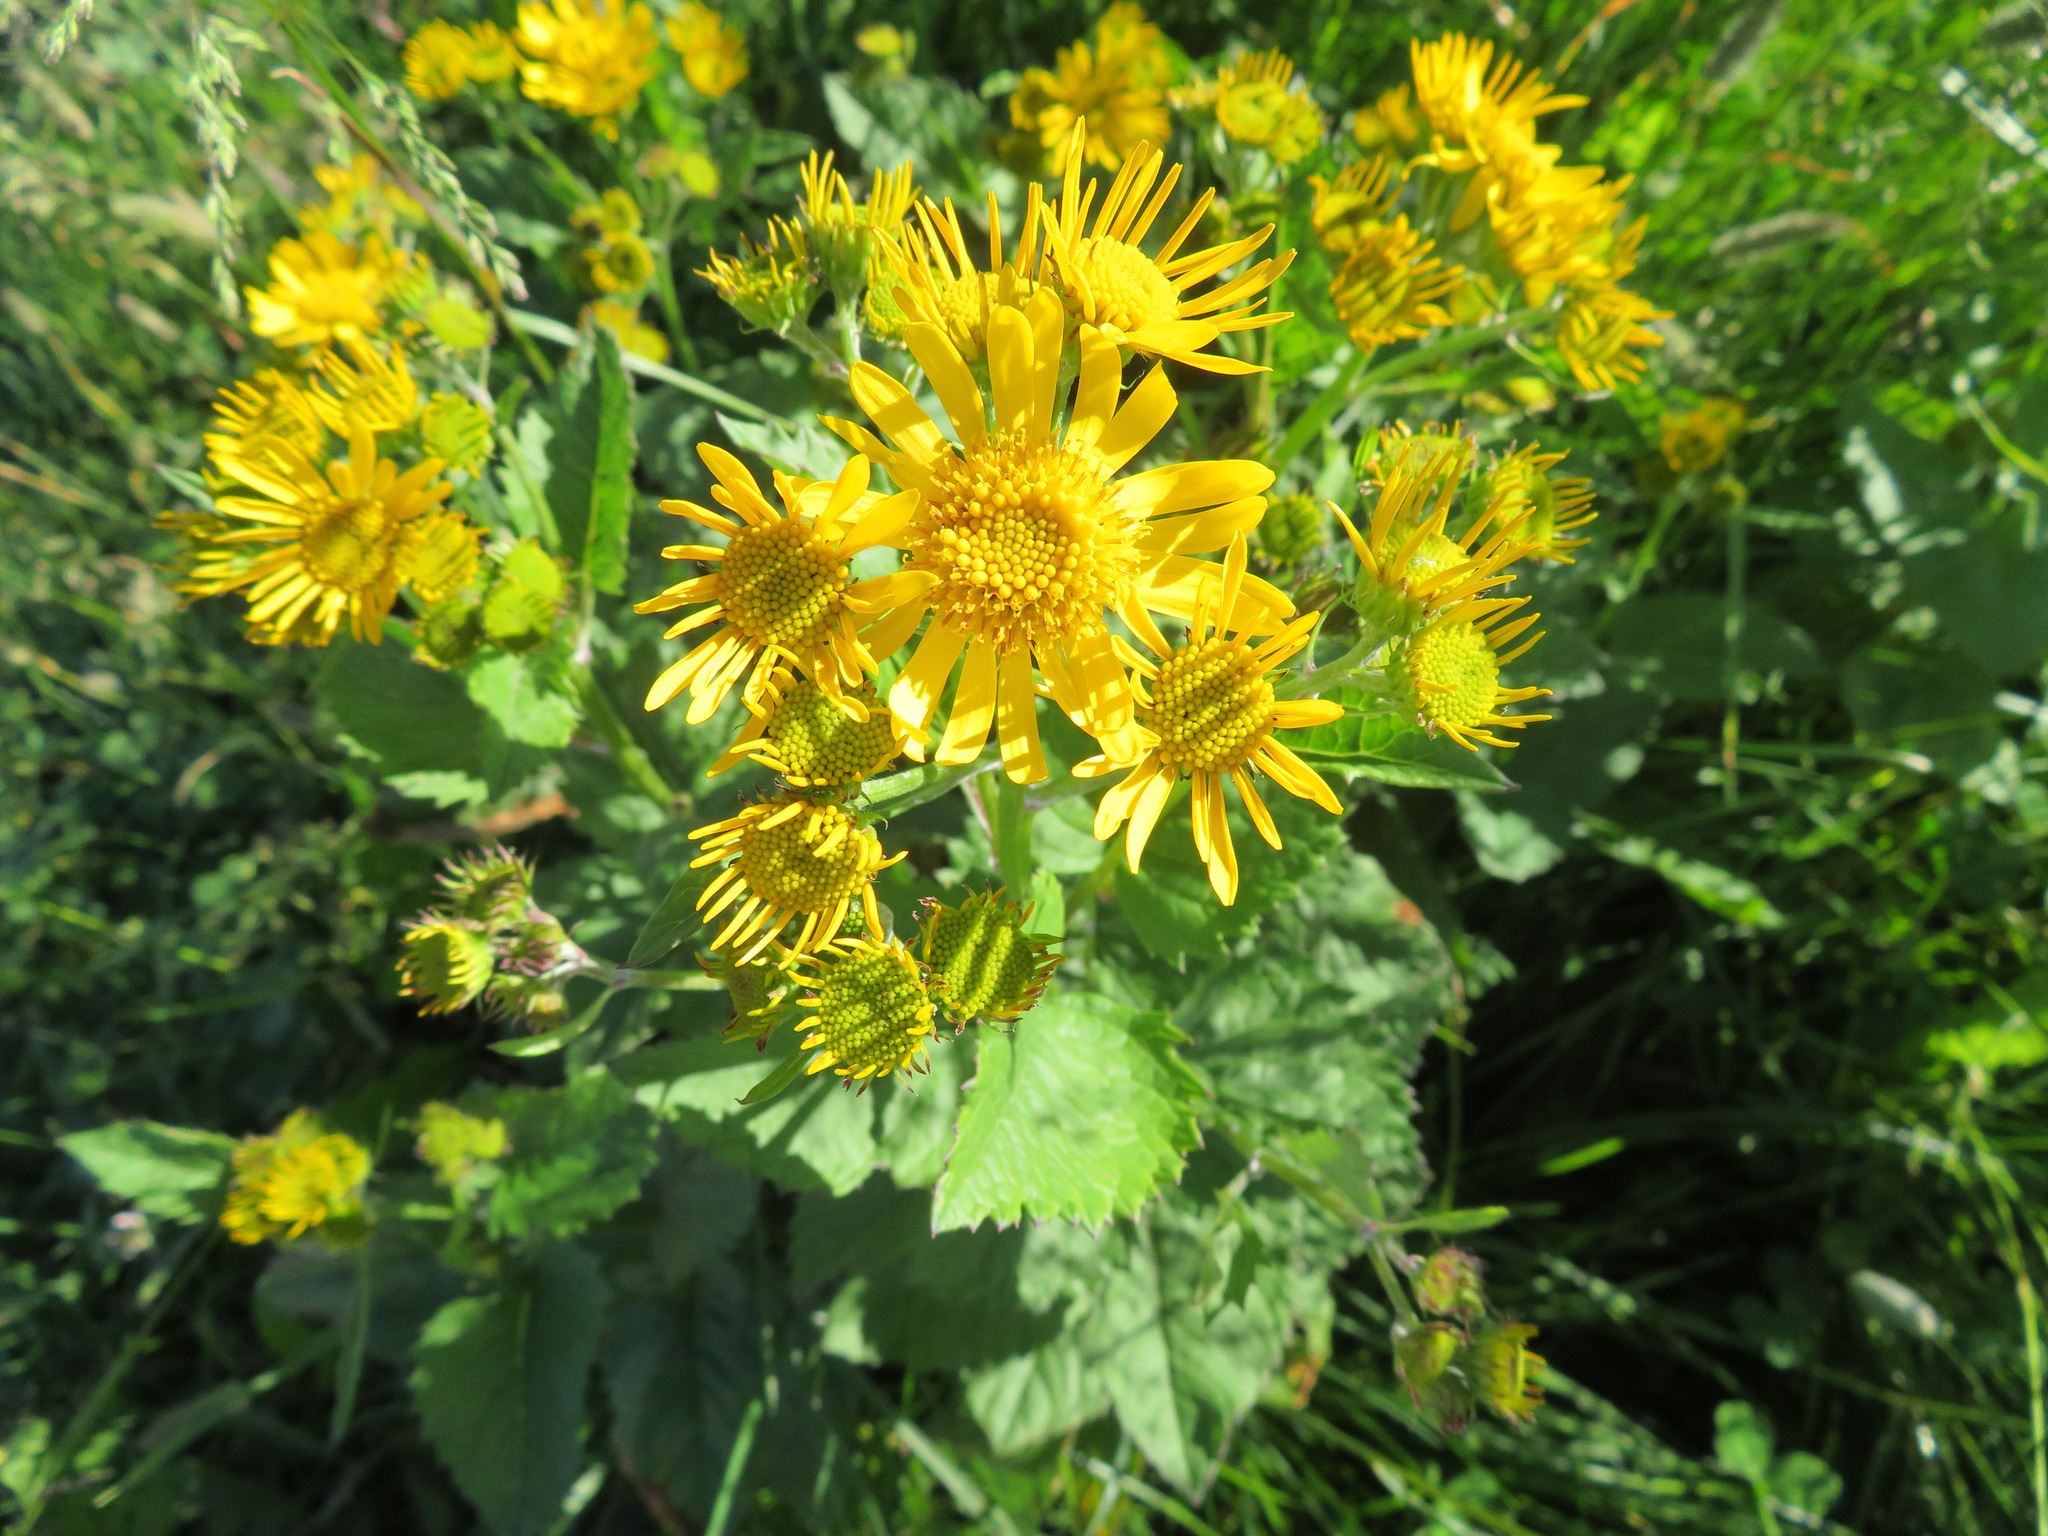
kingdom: Plantae
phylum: Tracheophyta
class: Magnoliopsida
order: Asterales
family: Asteraceae
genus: Jacobaea
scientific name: Jacobaea alpina
